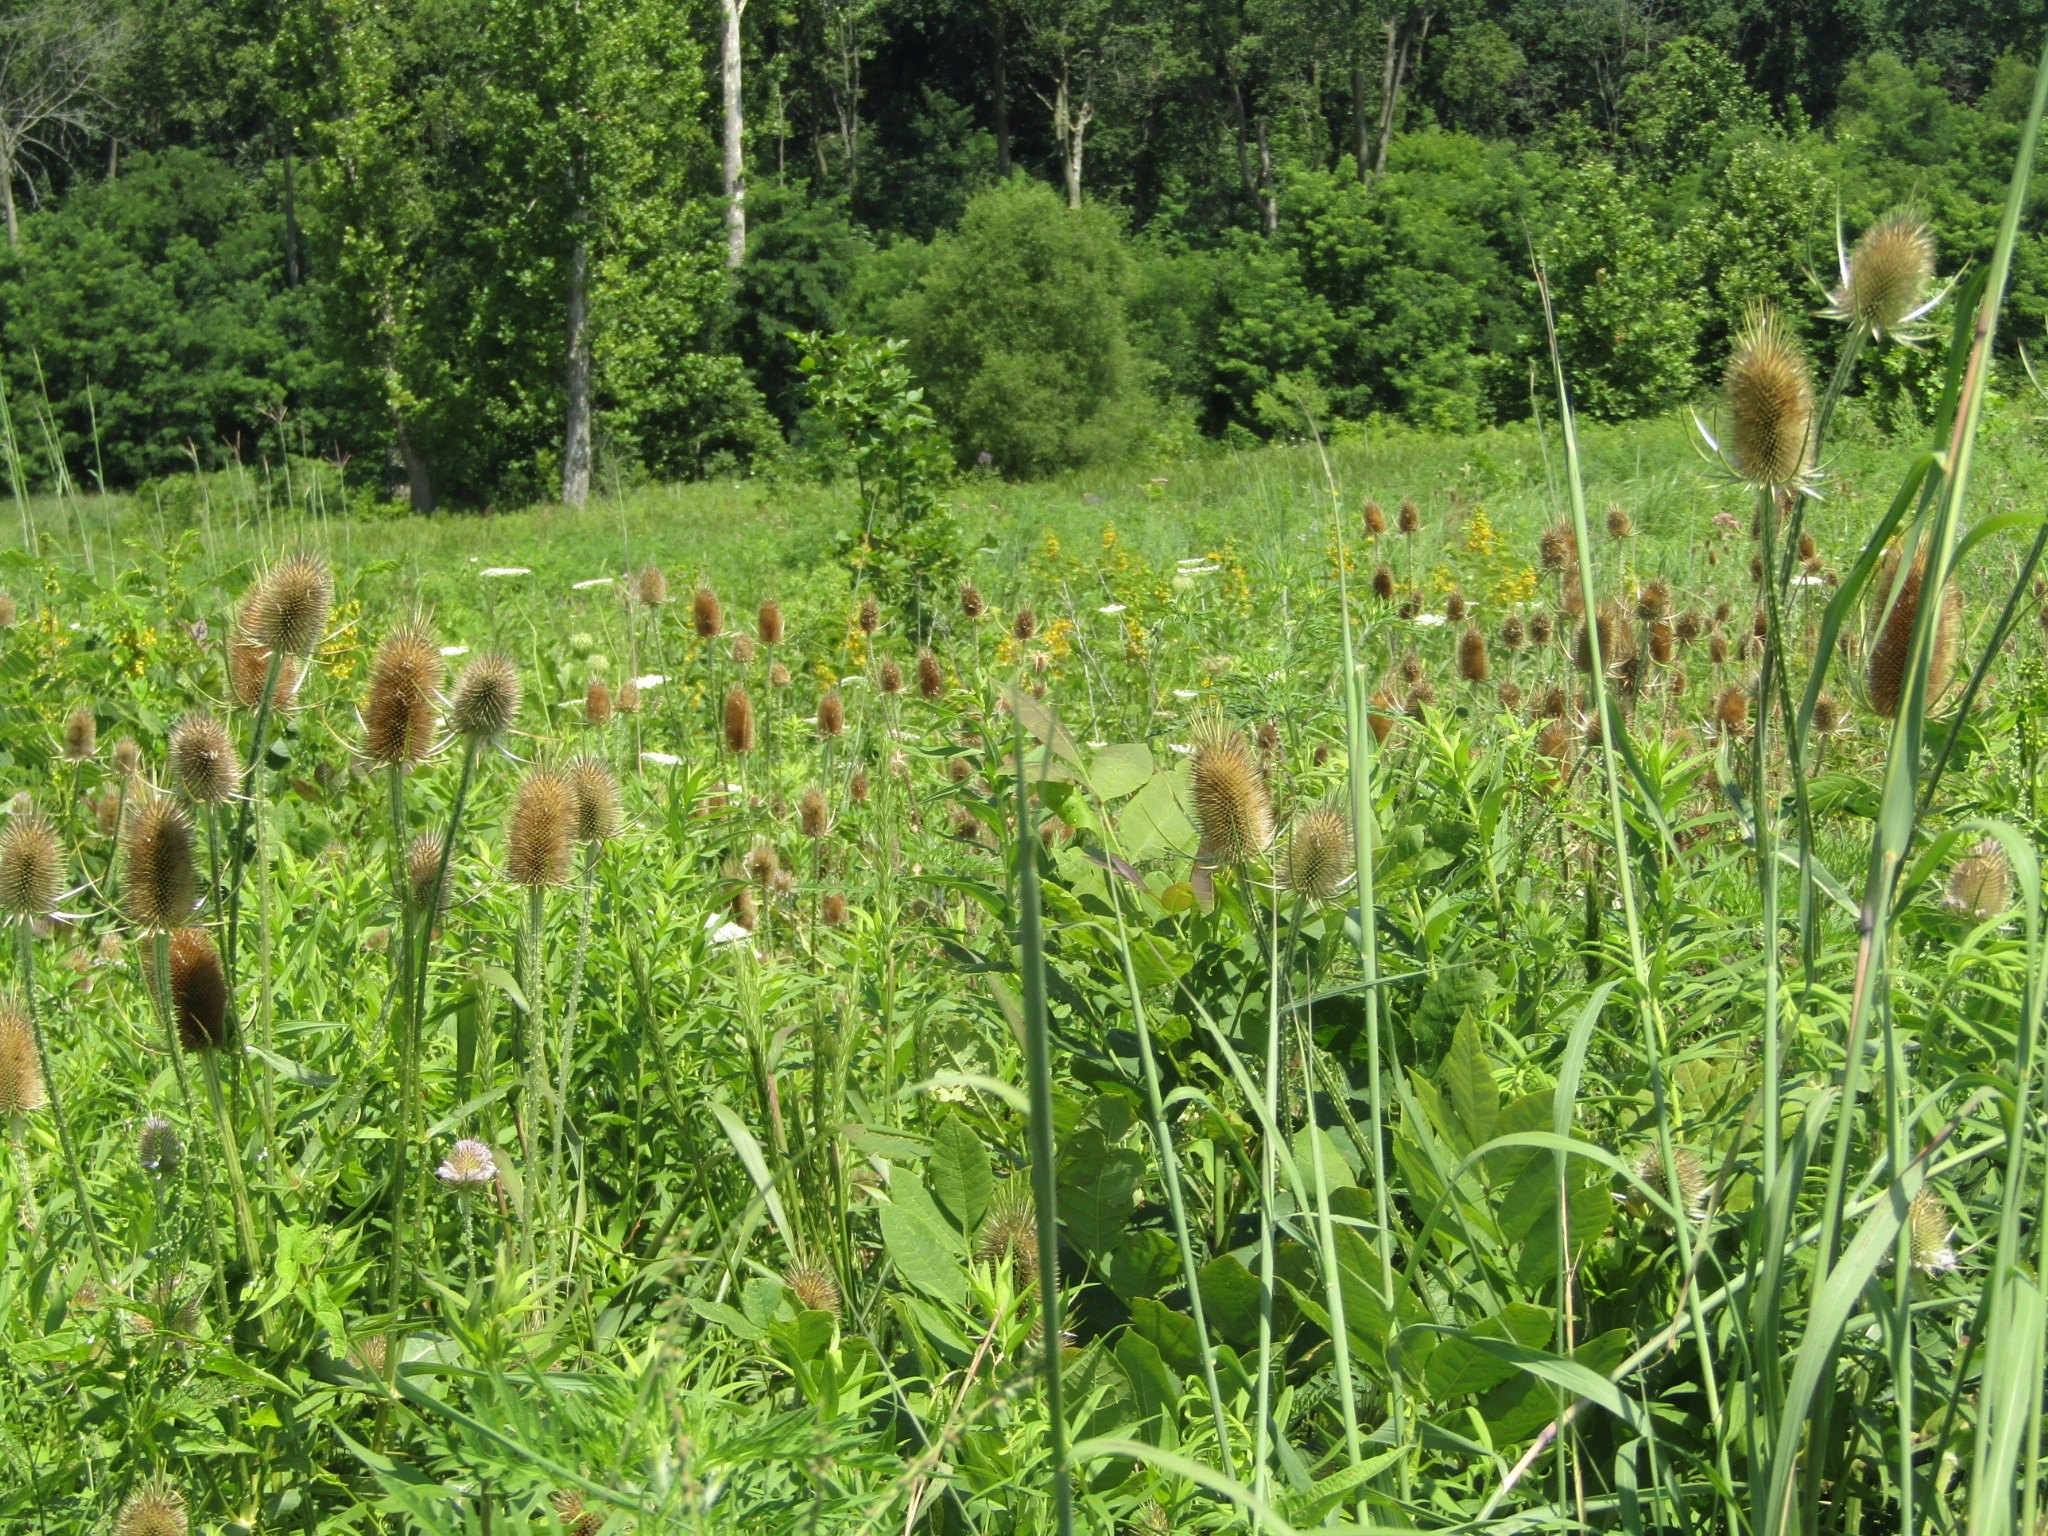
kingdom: Plantae
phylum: Tracheophyta
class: Magnoliopsida
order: Dipsacales
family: Caprifoliaceae
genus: Dipsacus
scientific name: Dipsacus fullonum
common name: Teasel
